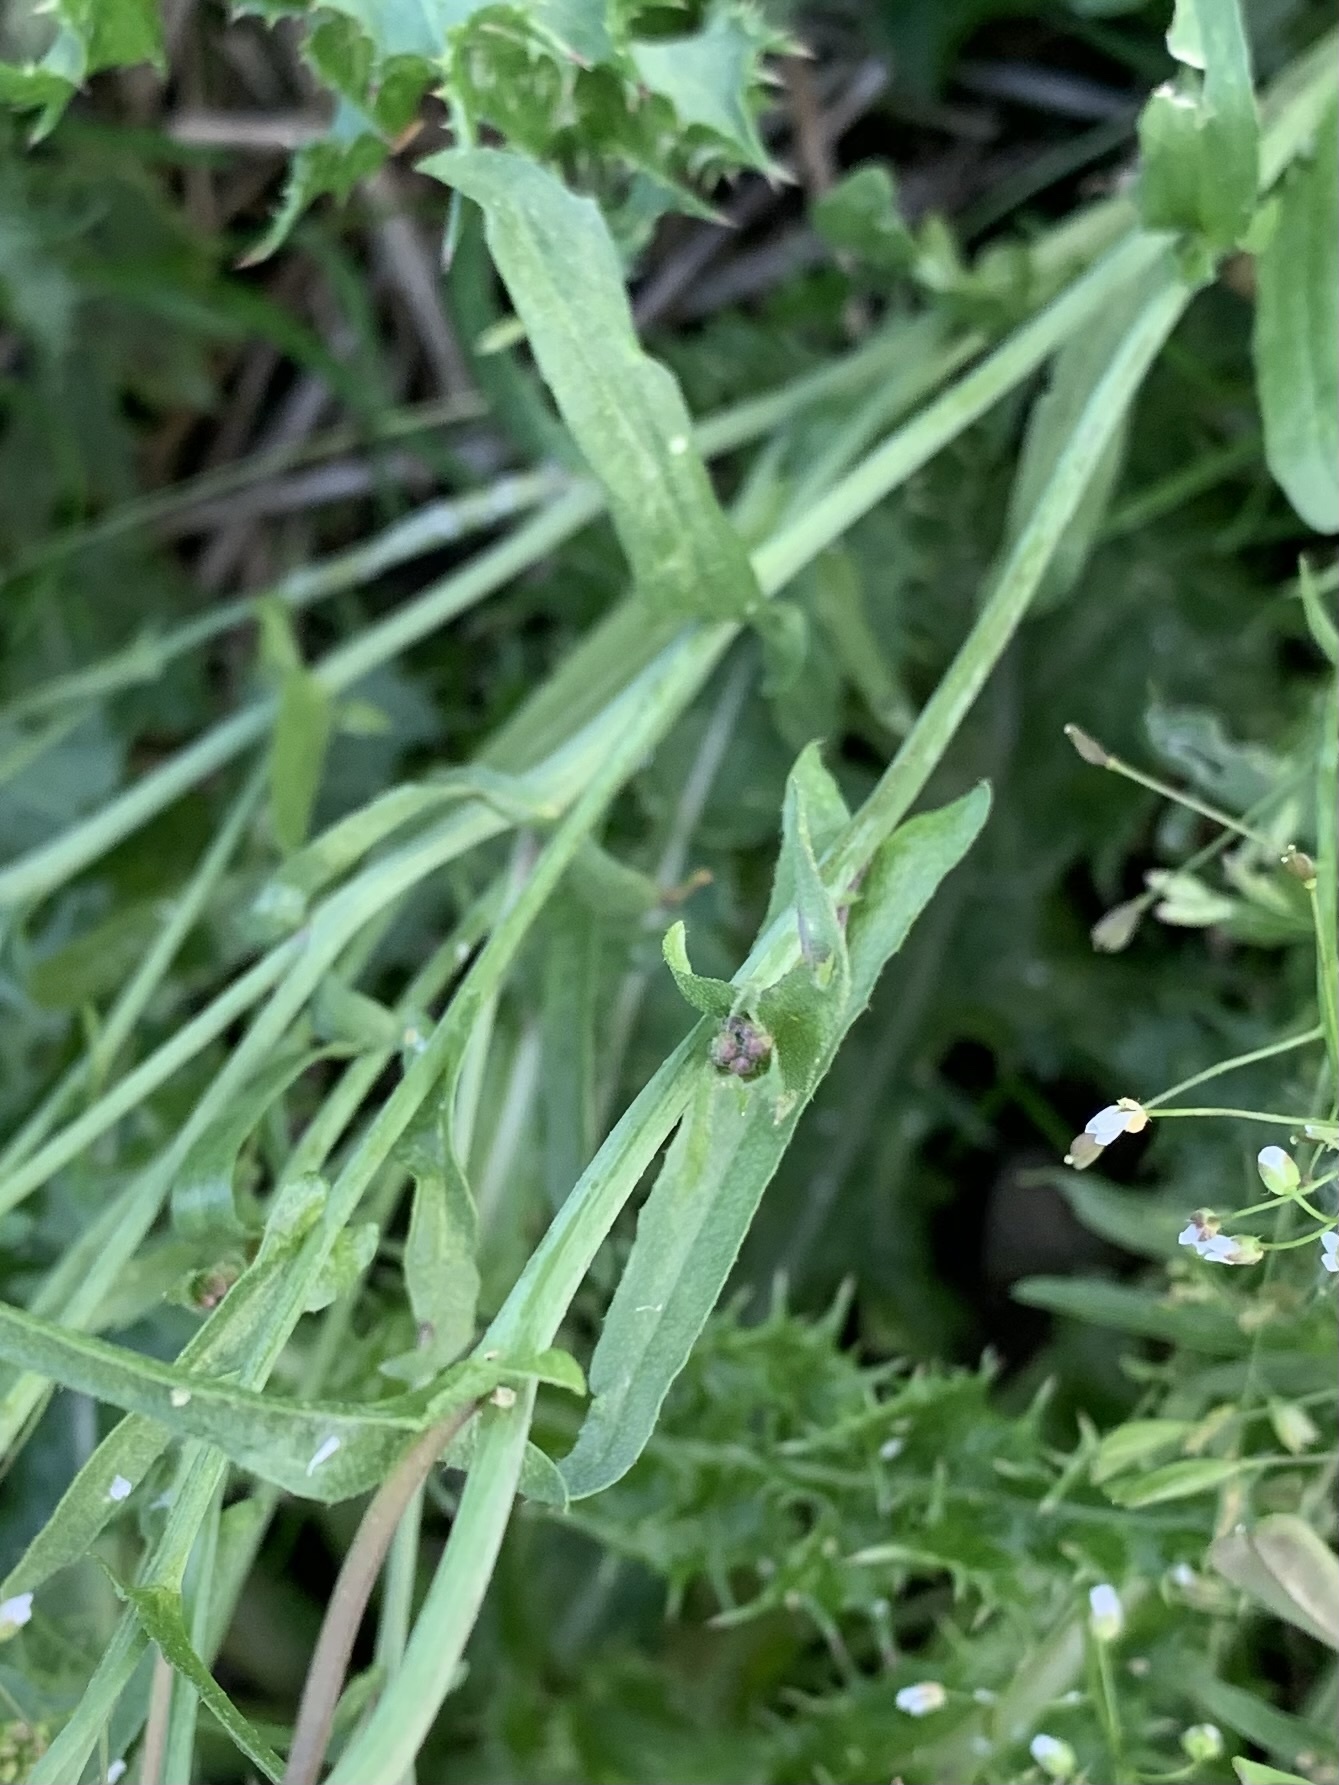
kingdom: Plantae
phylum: Tracheophyta
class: Magnoliopsida
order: Brassicales
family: Brassicaceae
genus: Capsella
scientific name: Capsella bursa-pastoris
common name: Shepherd's purse
